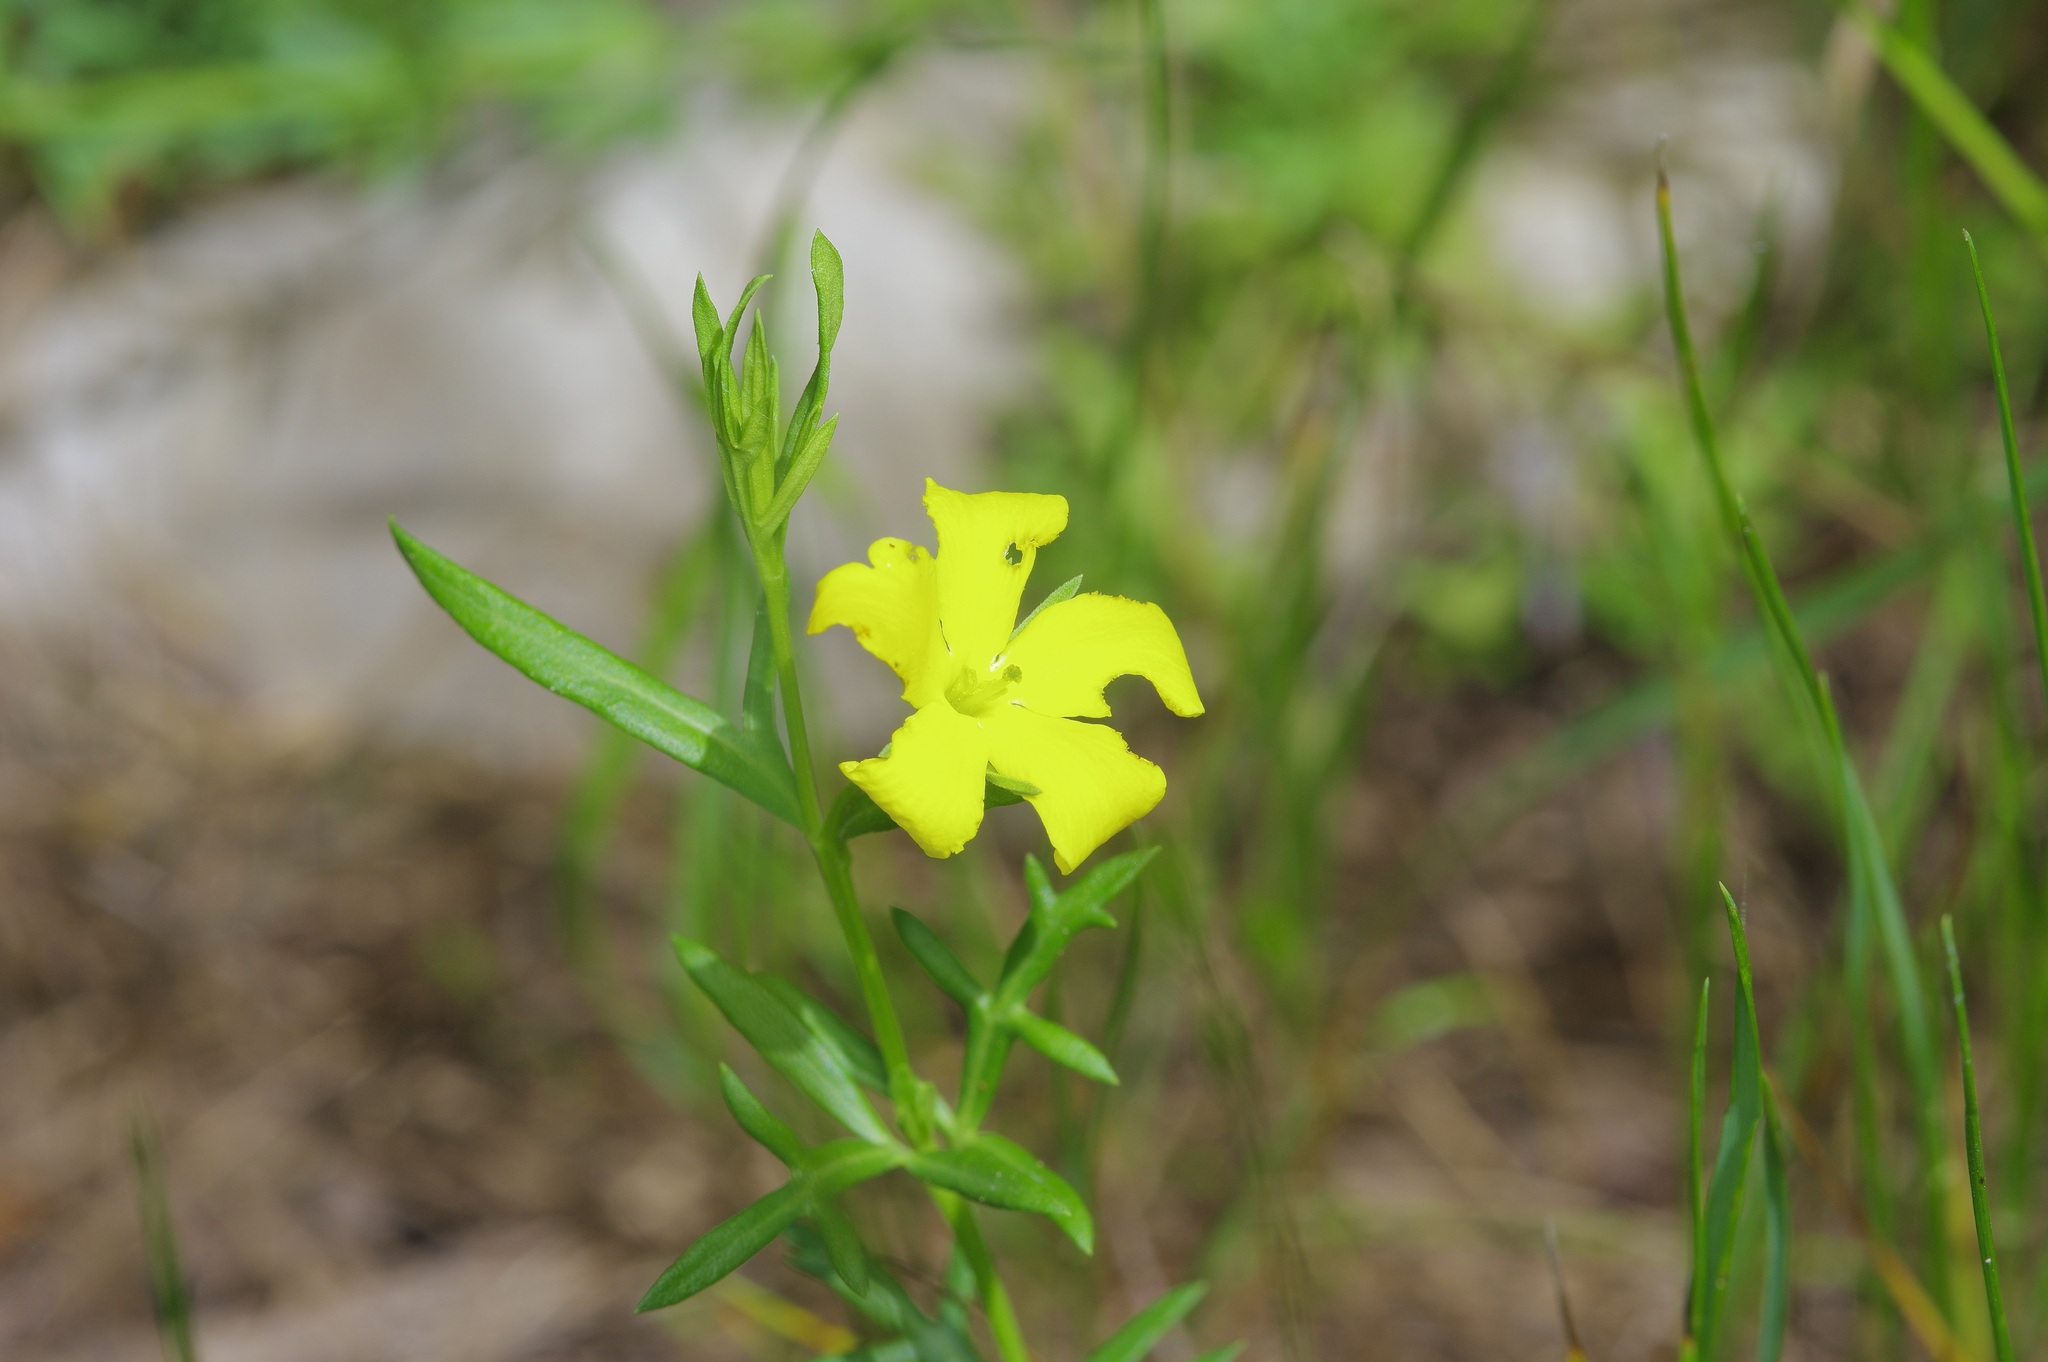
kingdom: Plantae
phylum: Tracheophyta
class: Magnoliopsida
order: Lamiales
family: Oleaceae
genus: Menodora
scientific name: Menodora heterophylla
